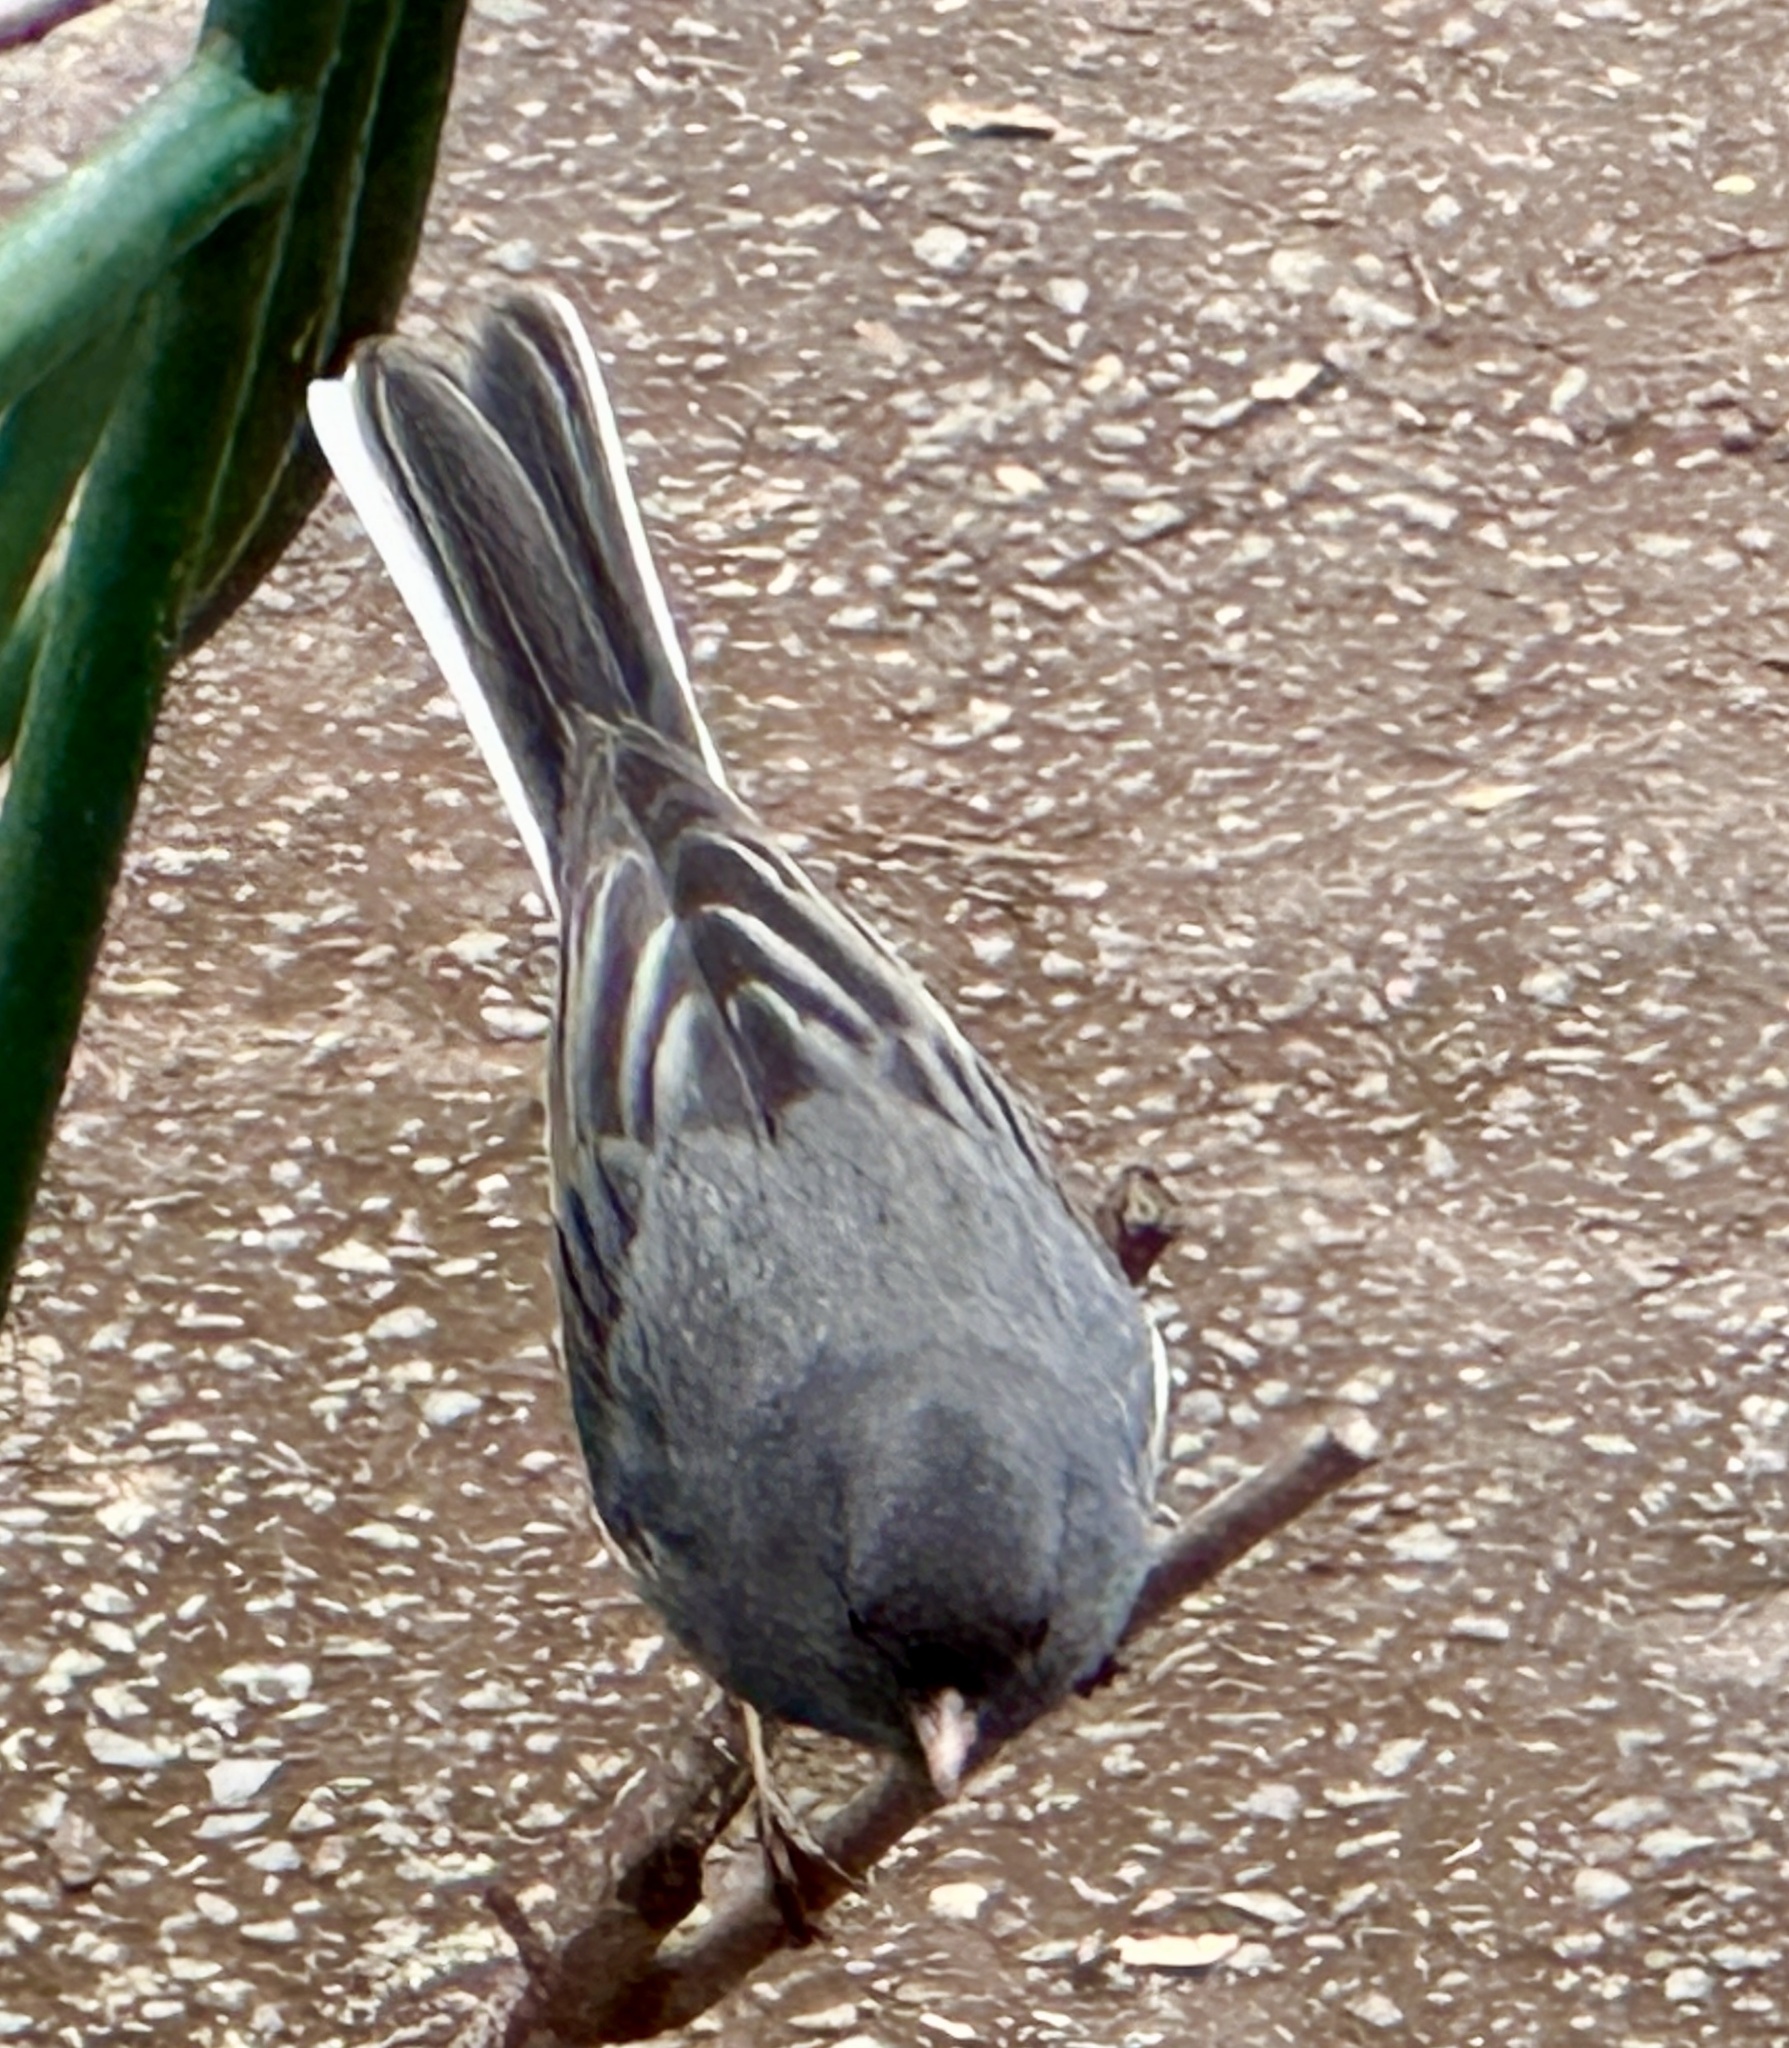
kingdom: Animalia
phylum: Chordata
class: Aves
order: Passeriformes
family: Passerellidae
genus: Junco
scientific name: Junco hyemalis
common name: Dark-eyed junco
